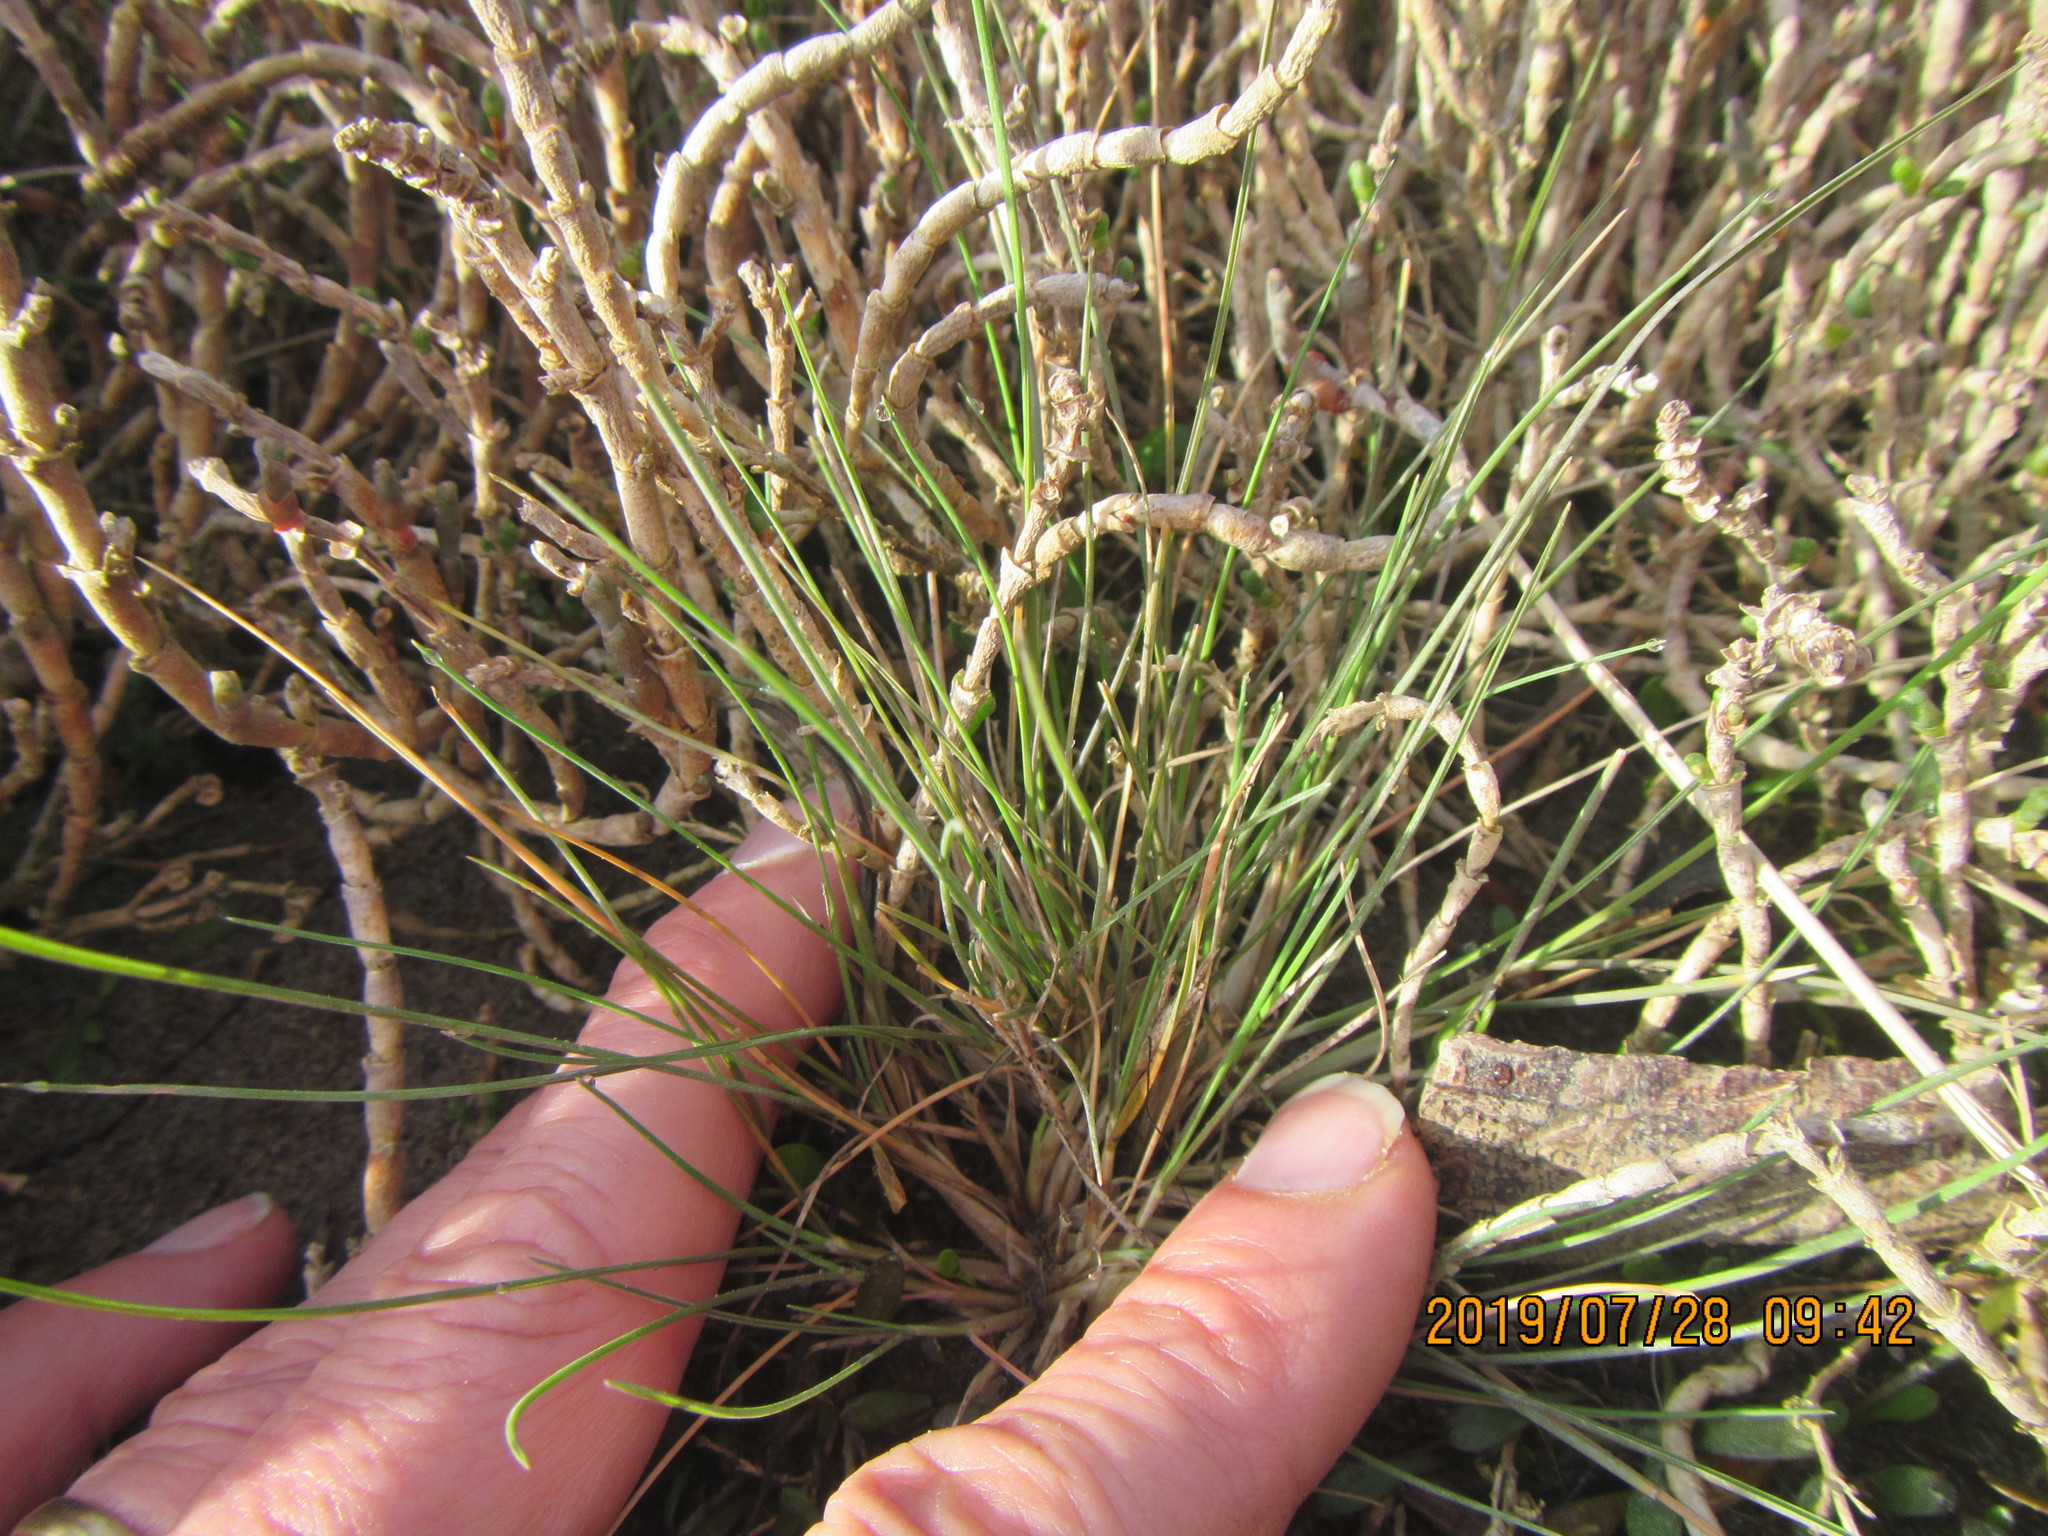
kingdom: Plantae
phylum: Tracheophyta
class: Liliopsida
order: Alismatales
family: Juncaginaceae
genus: Triglochin
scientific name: Triglochin striata
